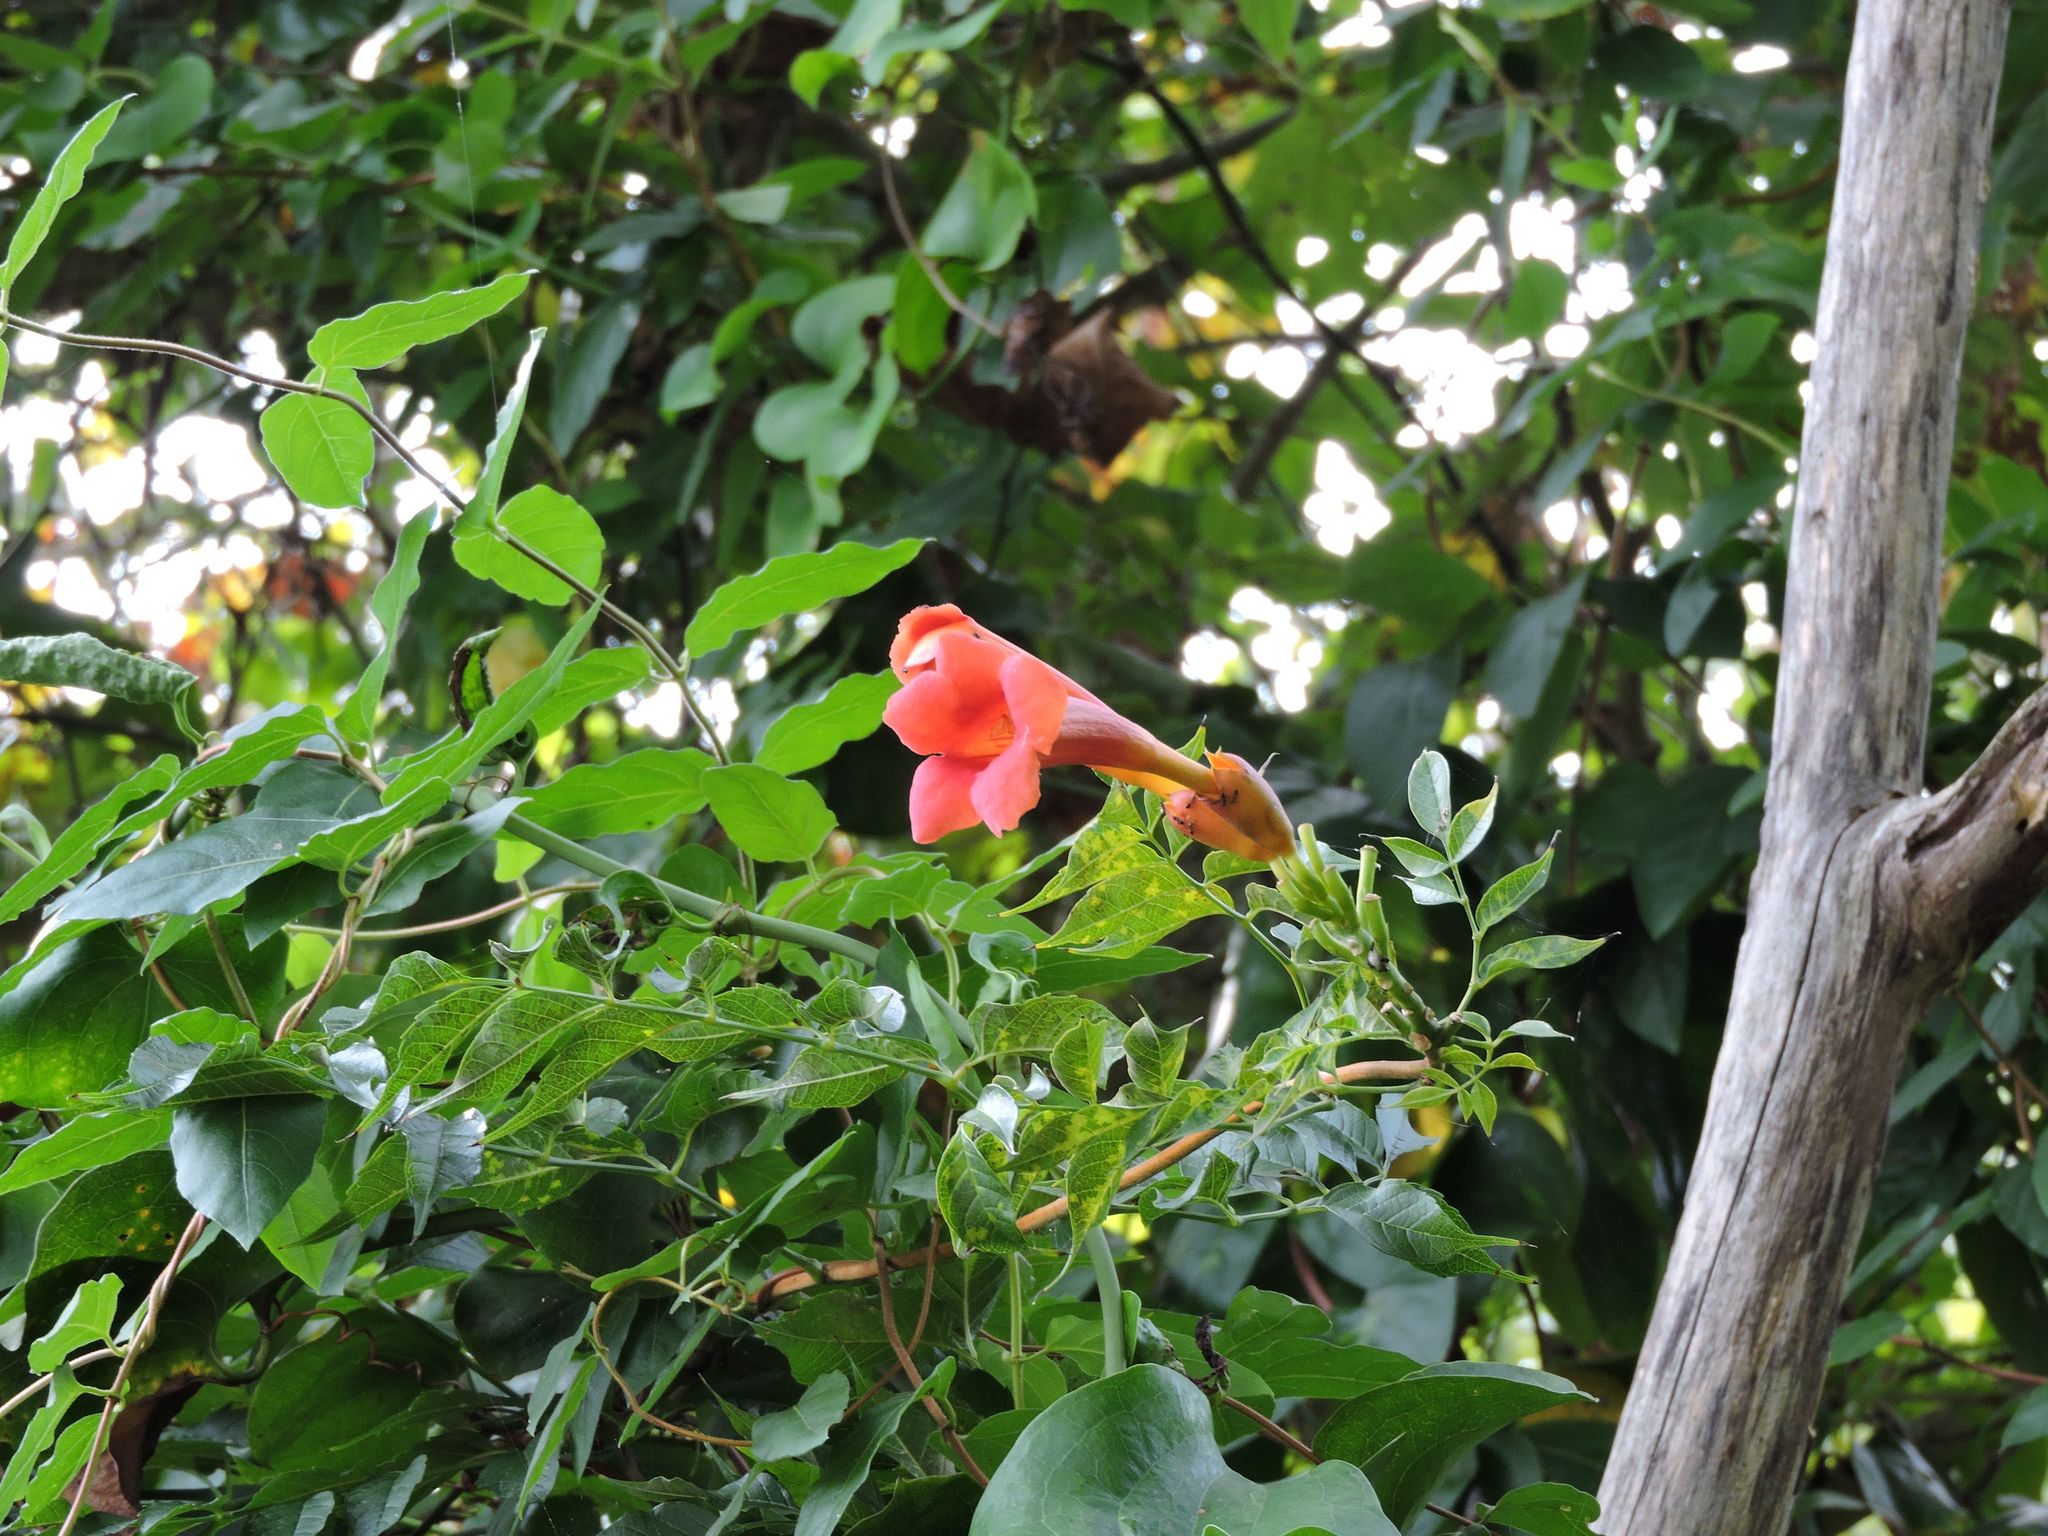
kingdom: Plantae
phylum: Tracheophyta
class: Magnoliopsida
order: Lamiales
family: Bignoniaceae
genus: Campsis
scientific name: Campsis radicans
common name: Trumpet-creeper
